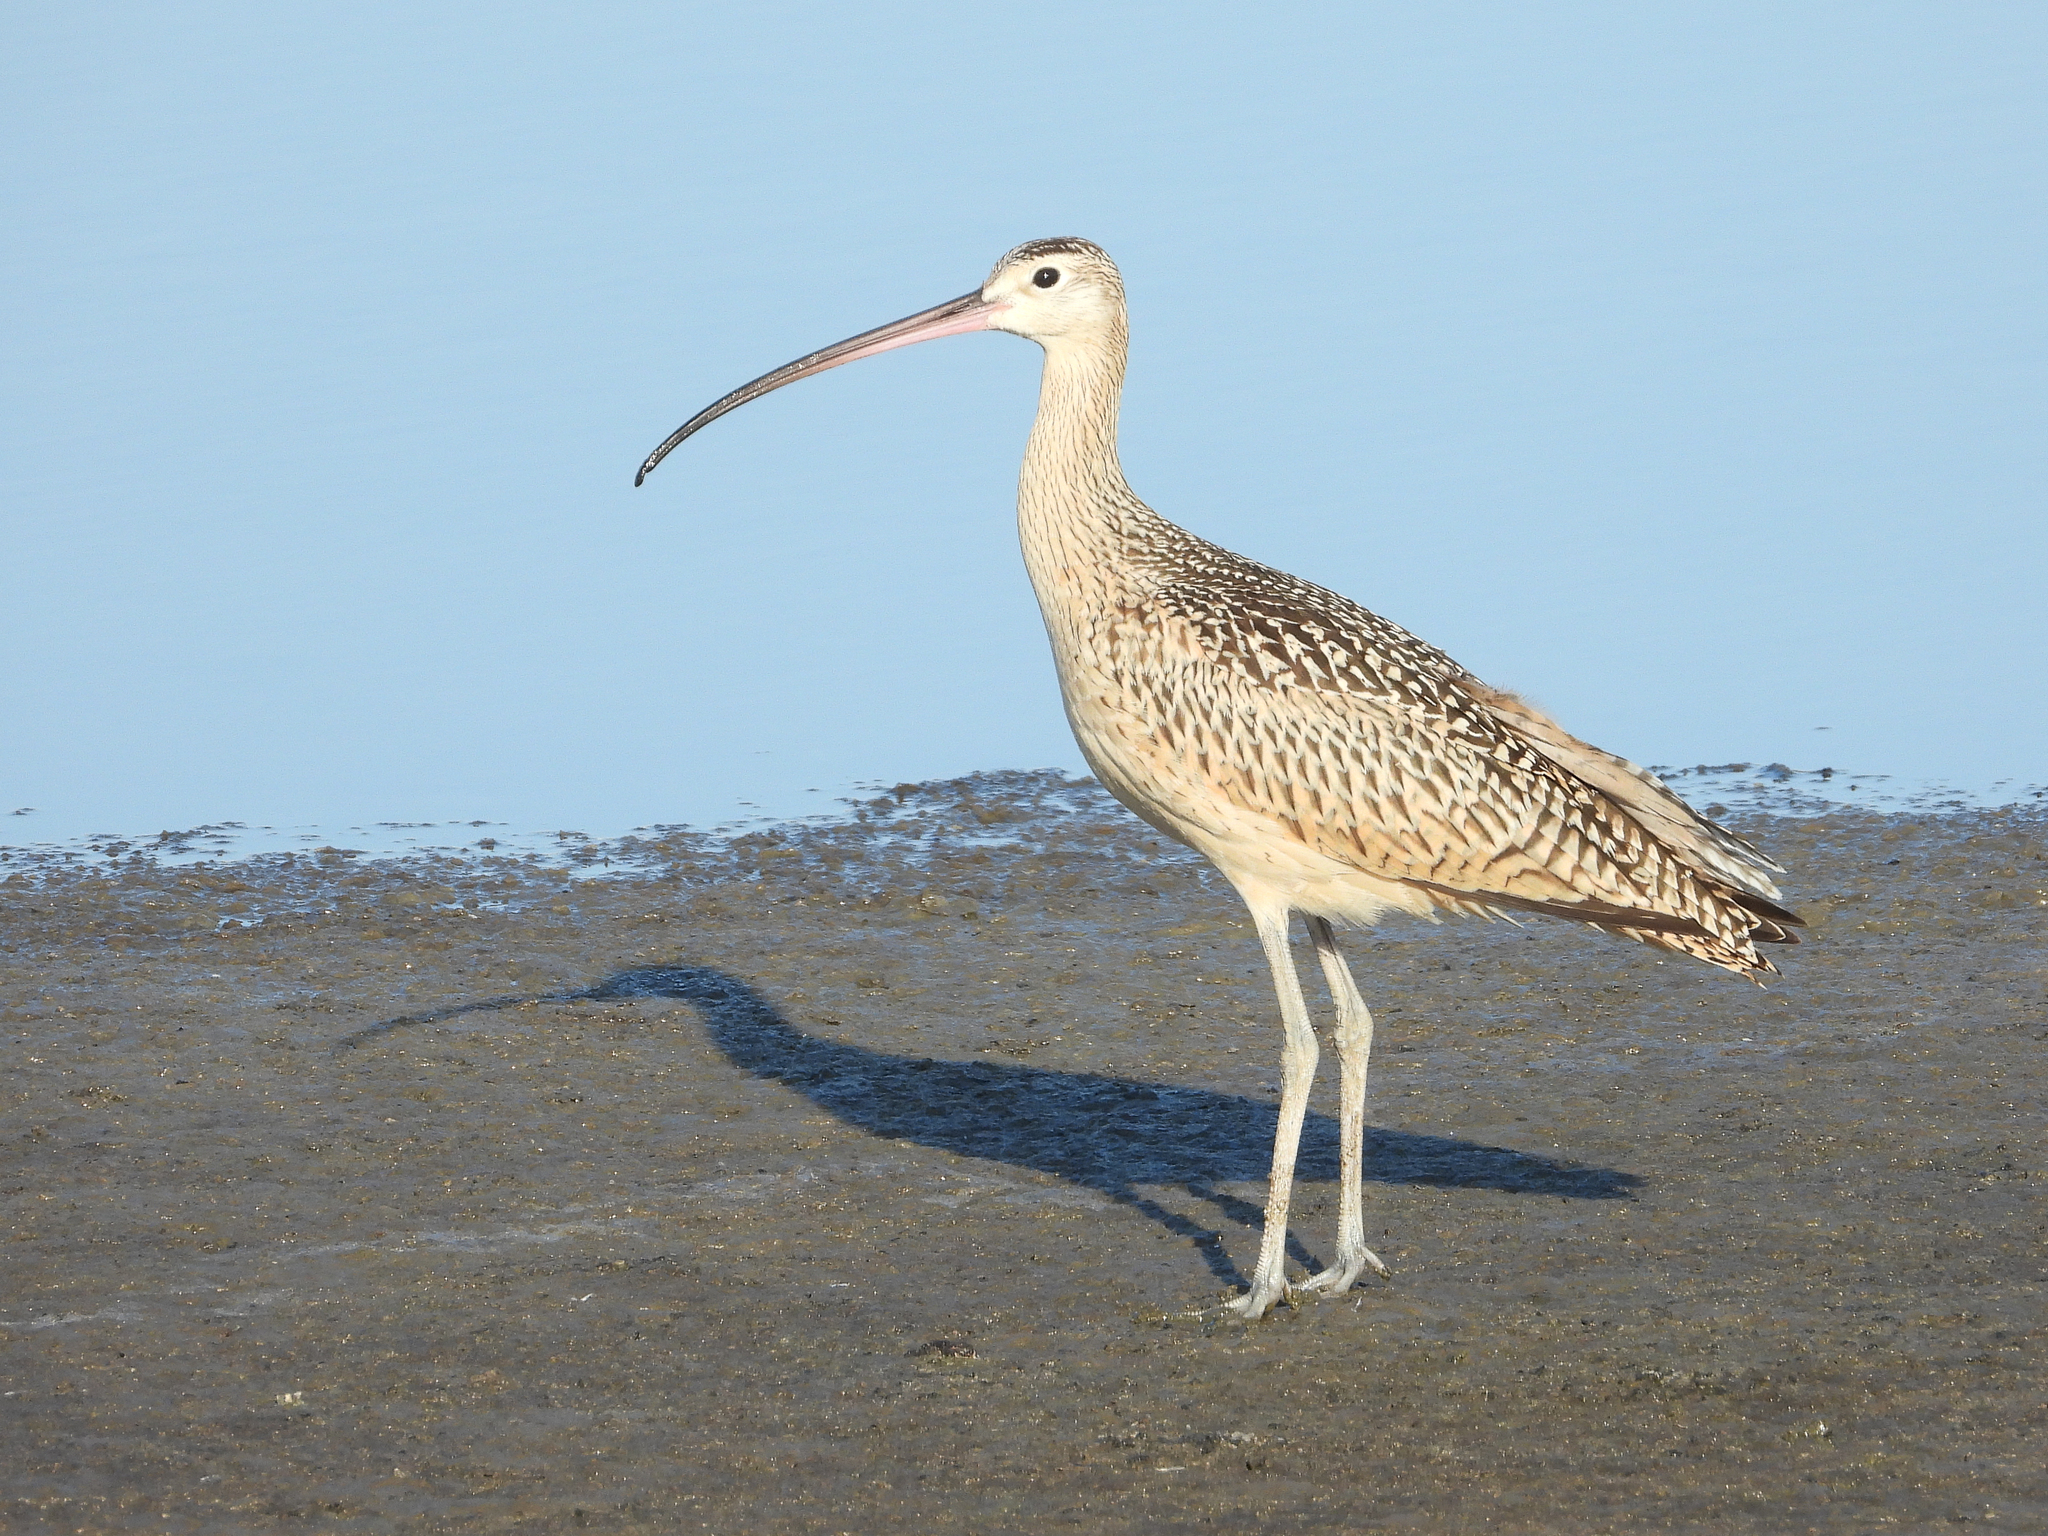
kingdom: Animalia
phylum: Chordata
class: Aves
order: Charadriiformes
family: Scolopacidae
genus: Numenius
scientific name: Numenius americanus
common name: Long-billed curlew
